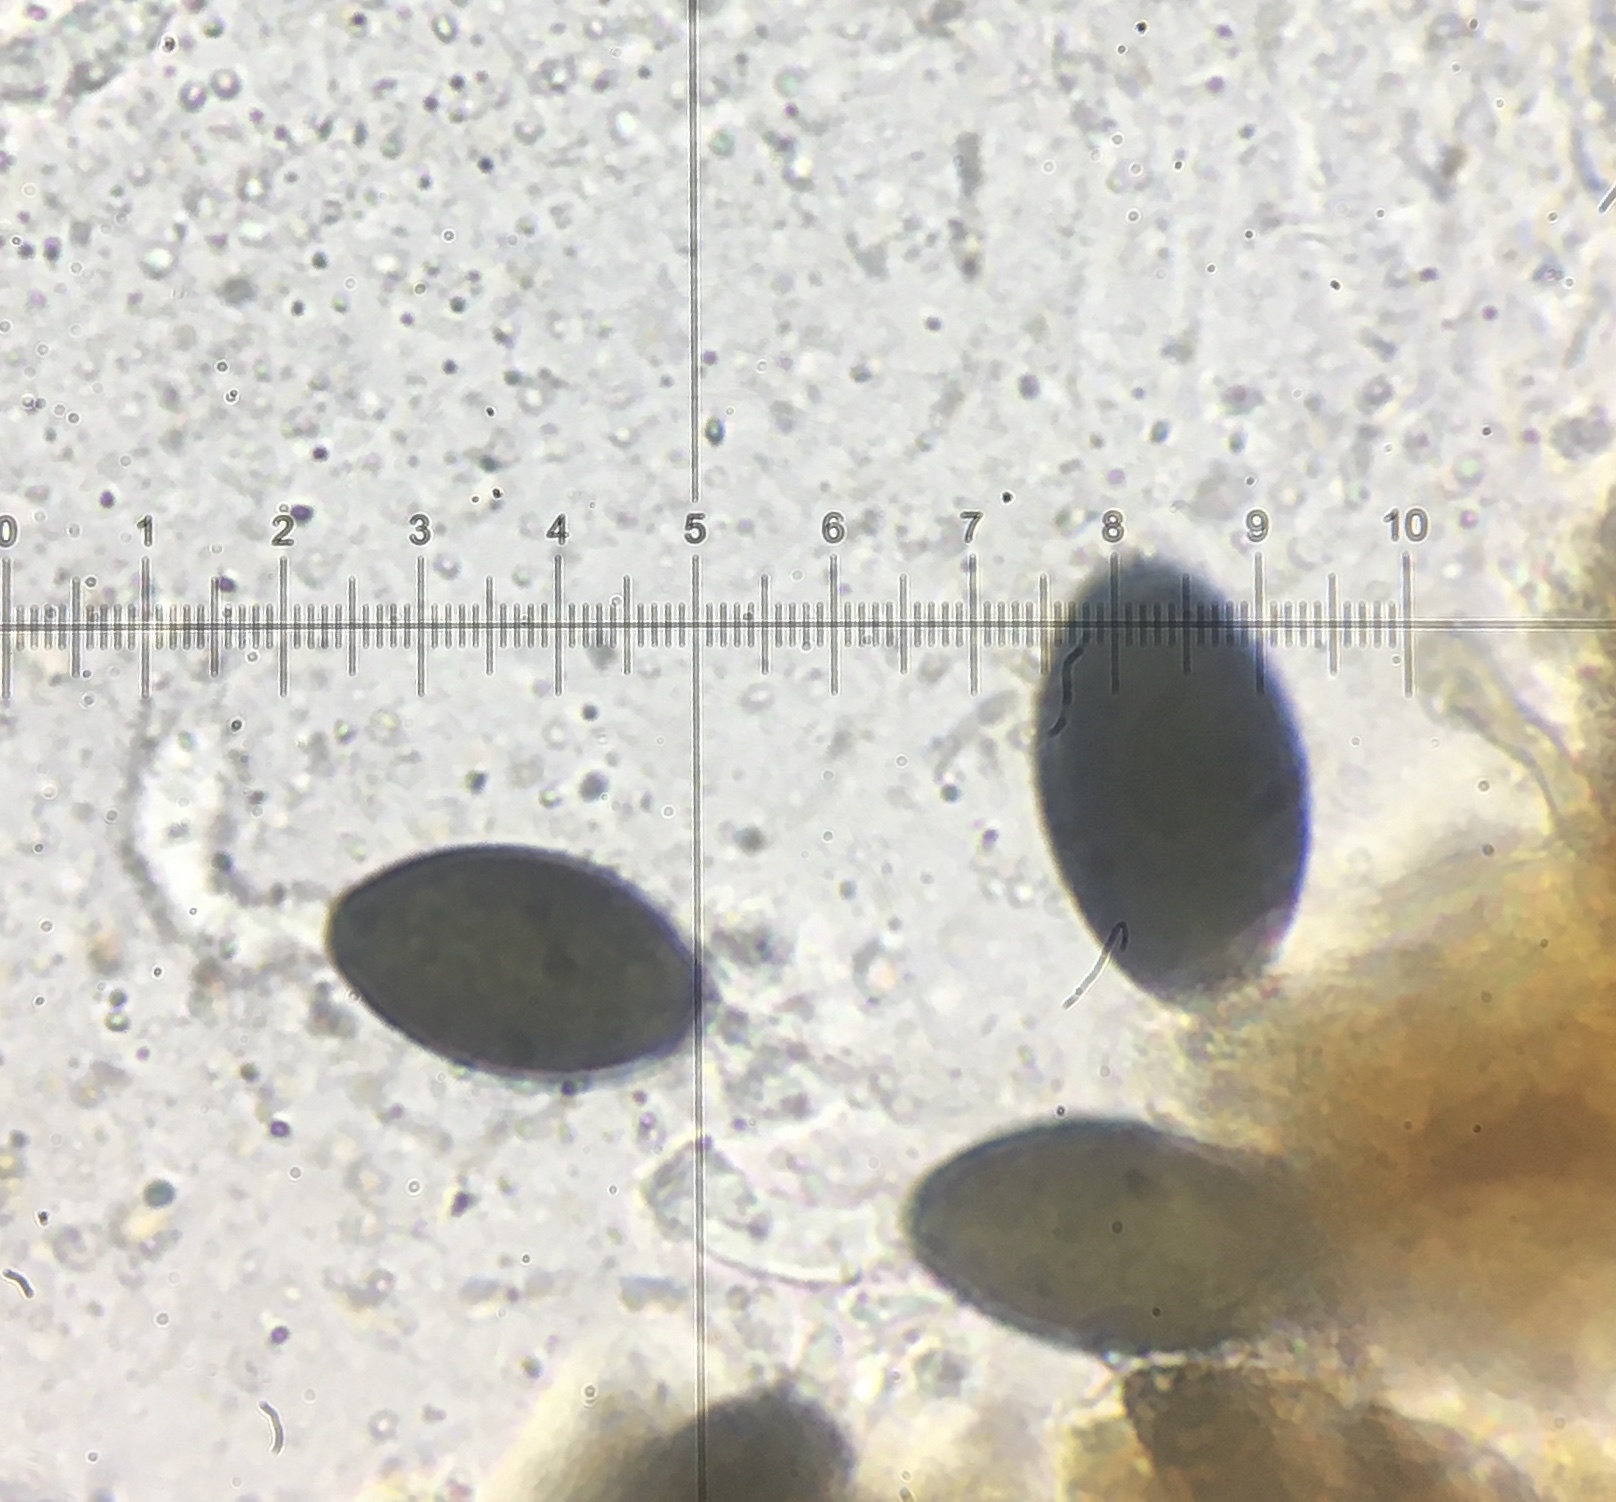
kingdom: Fungi
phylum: Ascomycota
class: Sordariomycetes
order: Sordariales
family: Naviculisporaceae
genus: Rhypophila
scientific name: Rhypophila pleiospora
